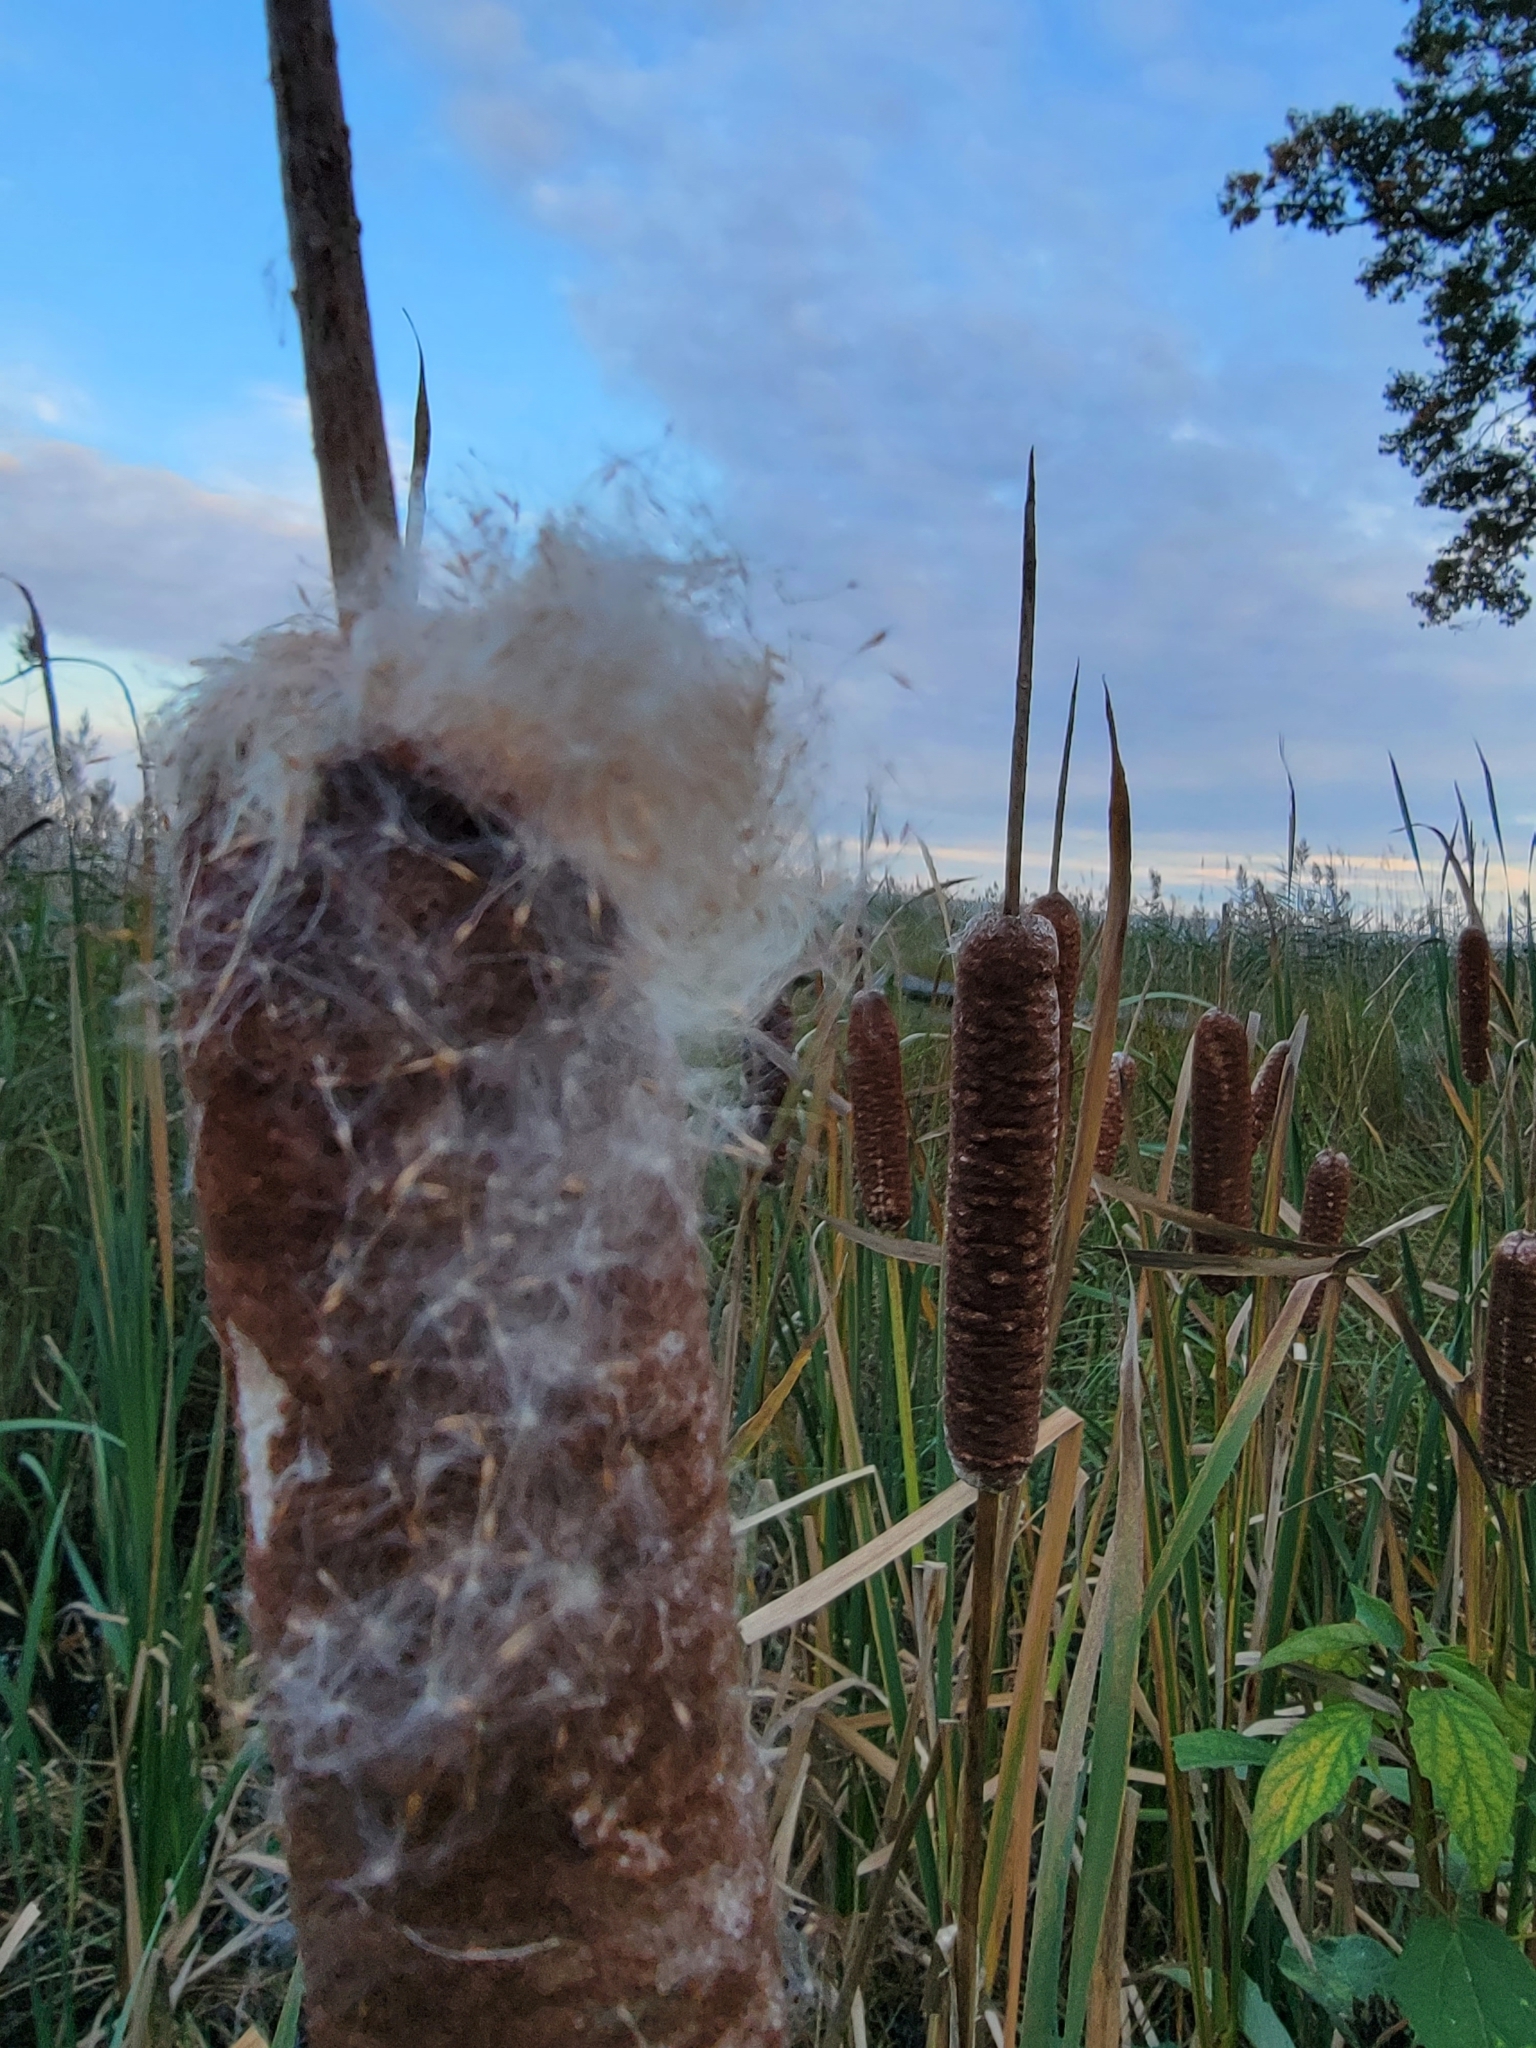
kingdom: Plantae
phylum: Tracheophyta
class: Liliopsida
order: Poales
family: Typhaceae
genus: Typha
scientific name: Typha latifolia
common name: Broadleaf cattail
